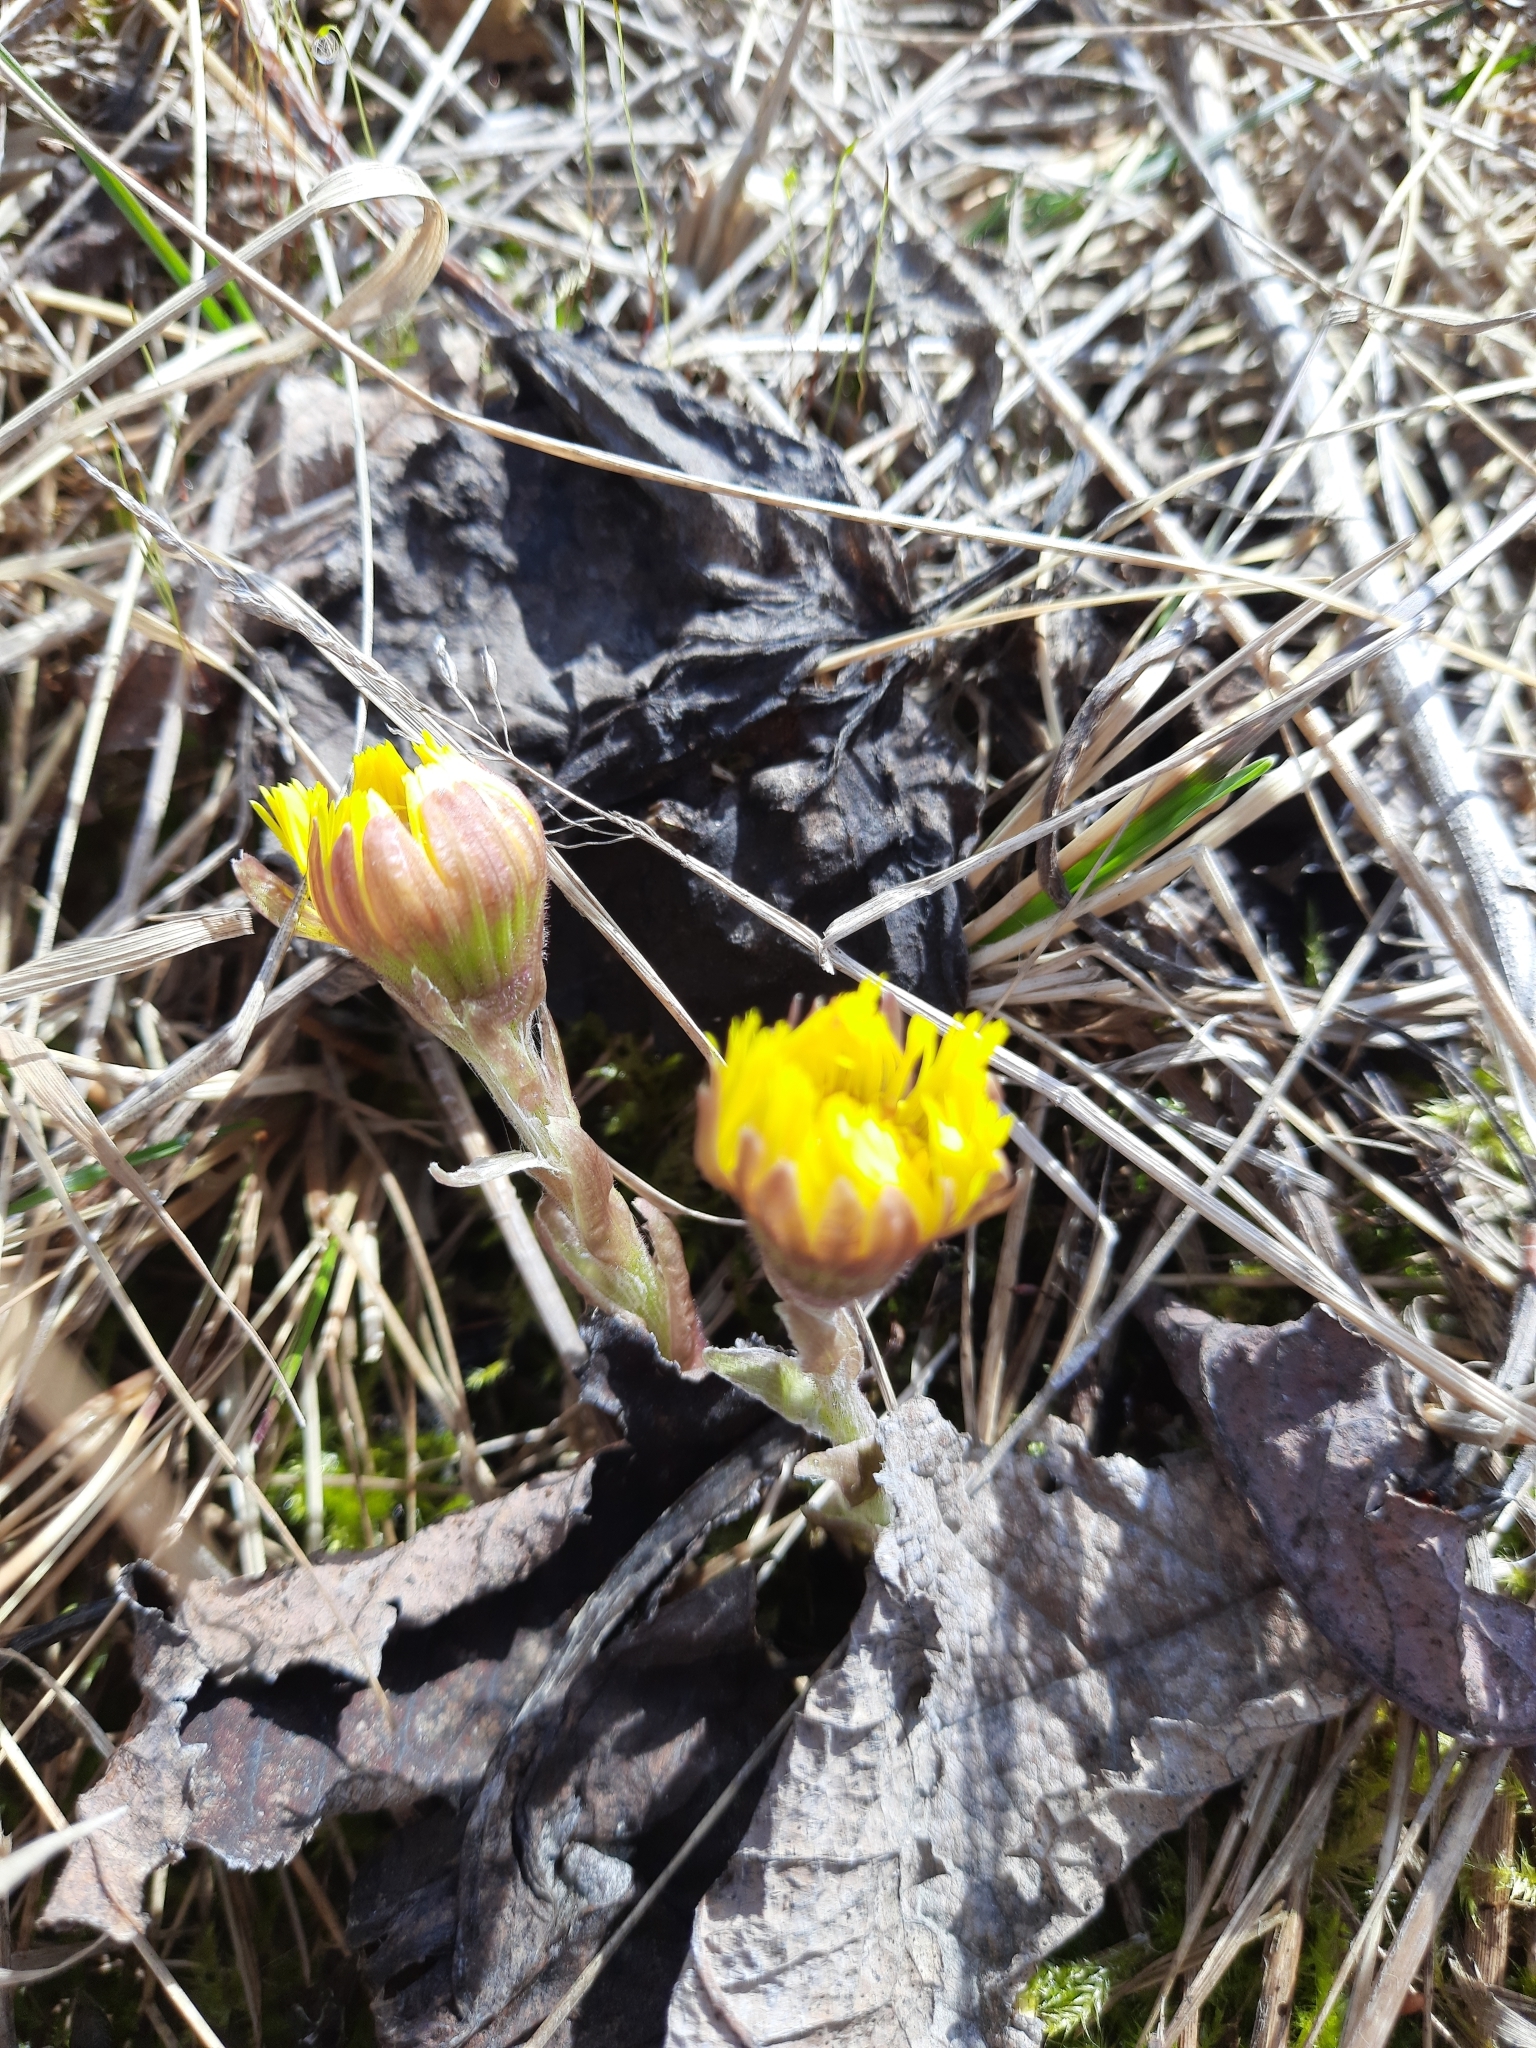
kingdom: Plantae
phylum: Tracheophyta
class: Magnoliopsida
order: Asterales
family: Asteraceae
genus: Tussilago
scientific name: Tussilago farfara
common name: Coltsfoot
